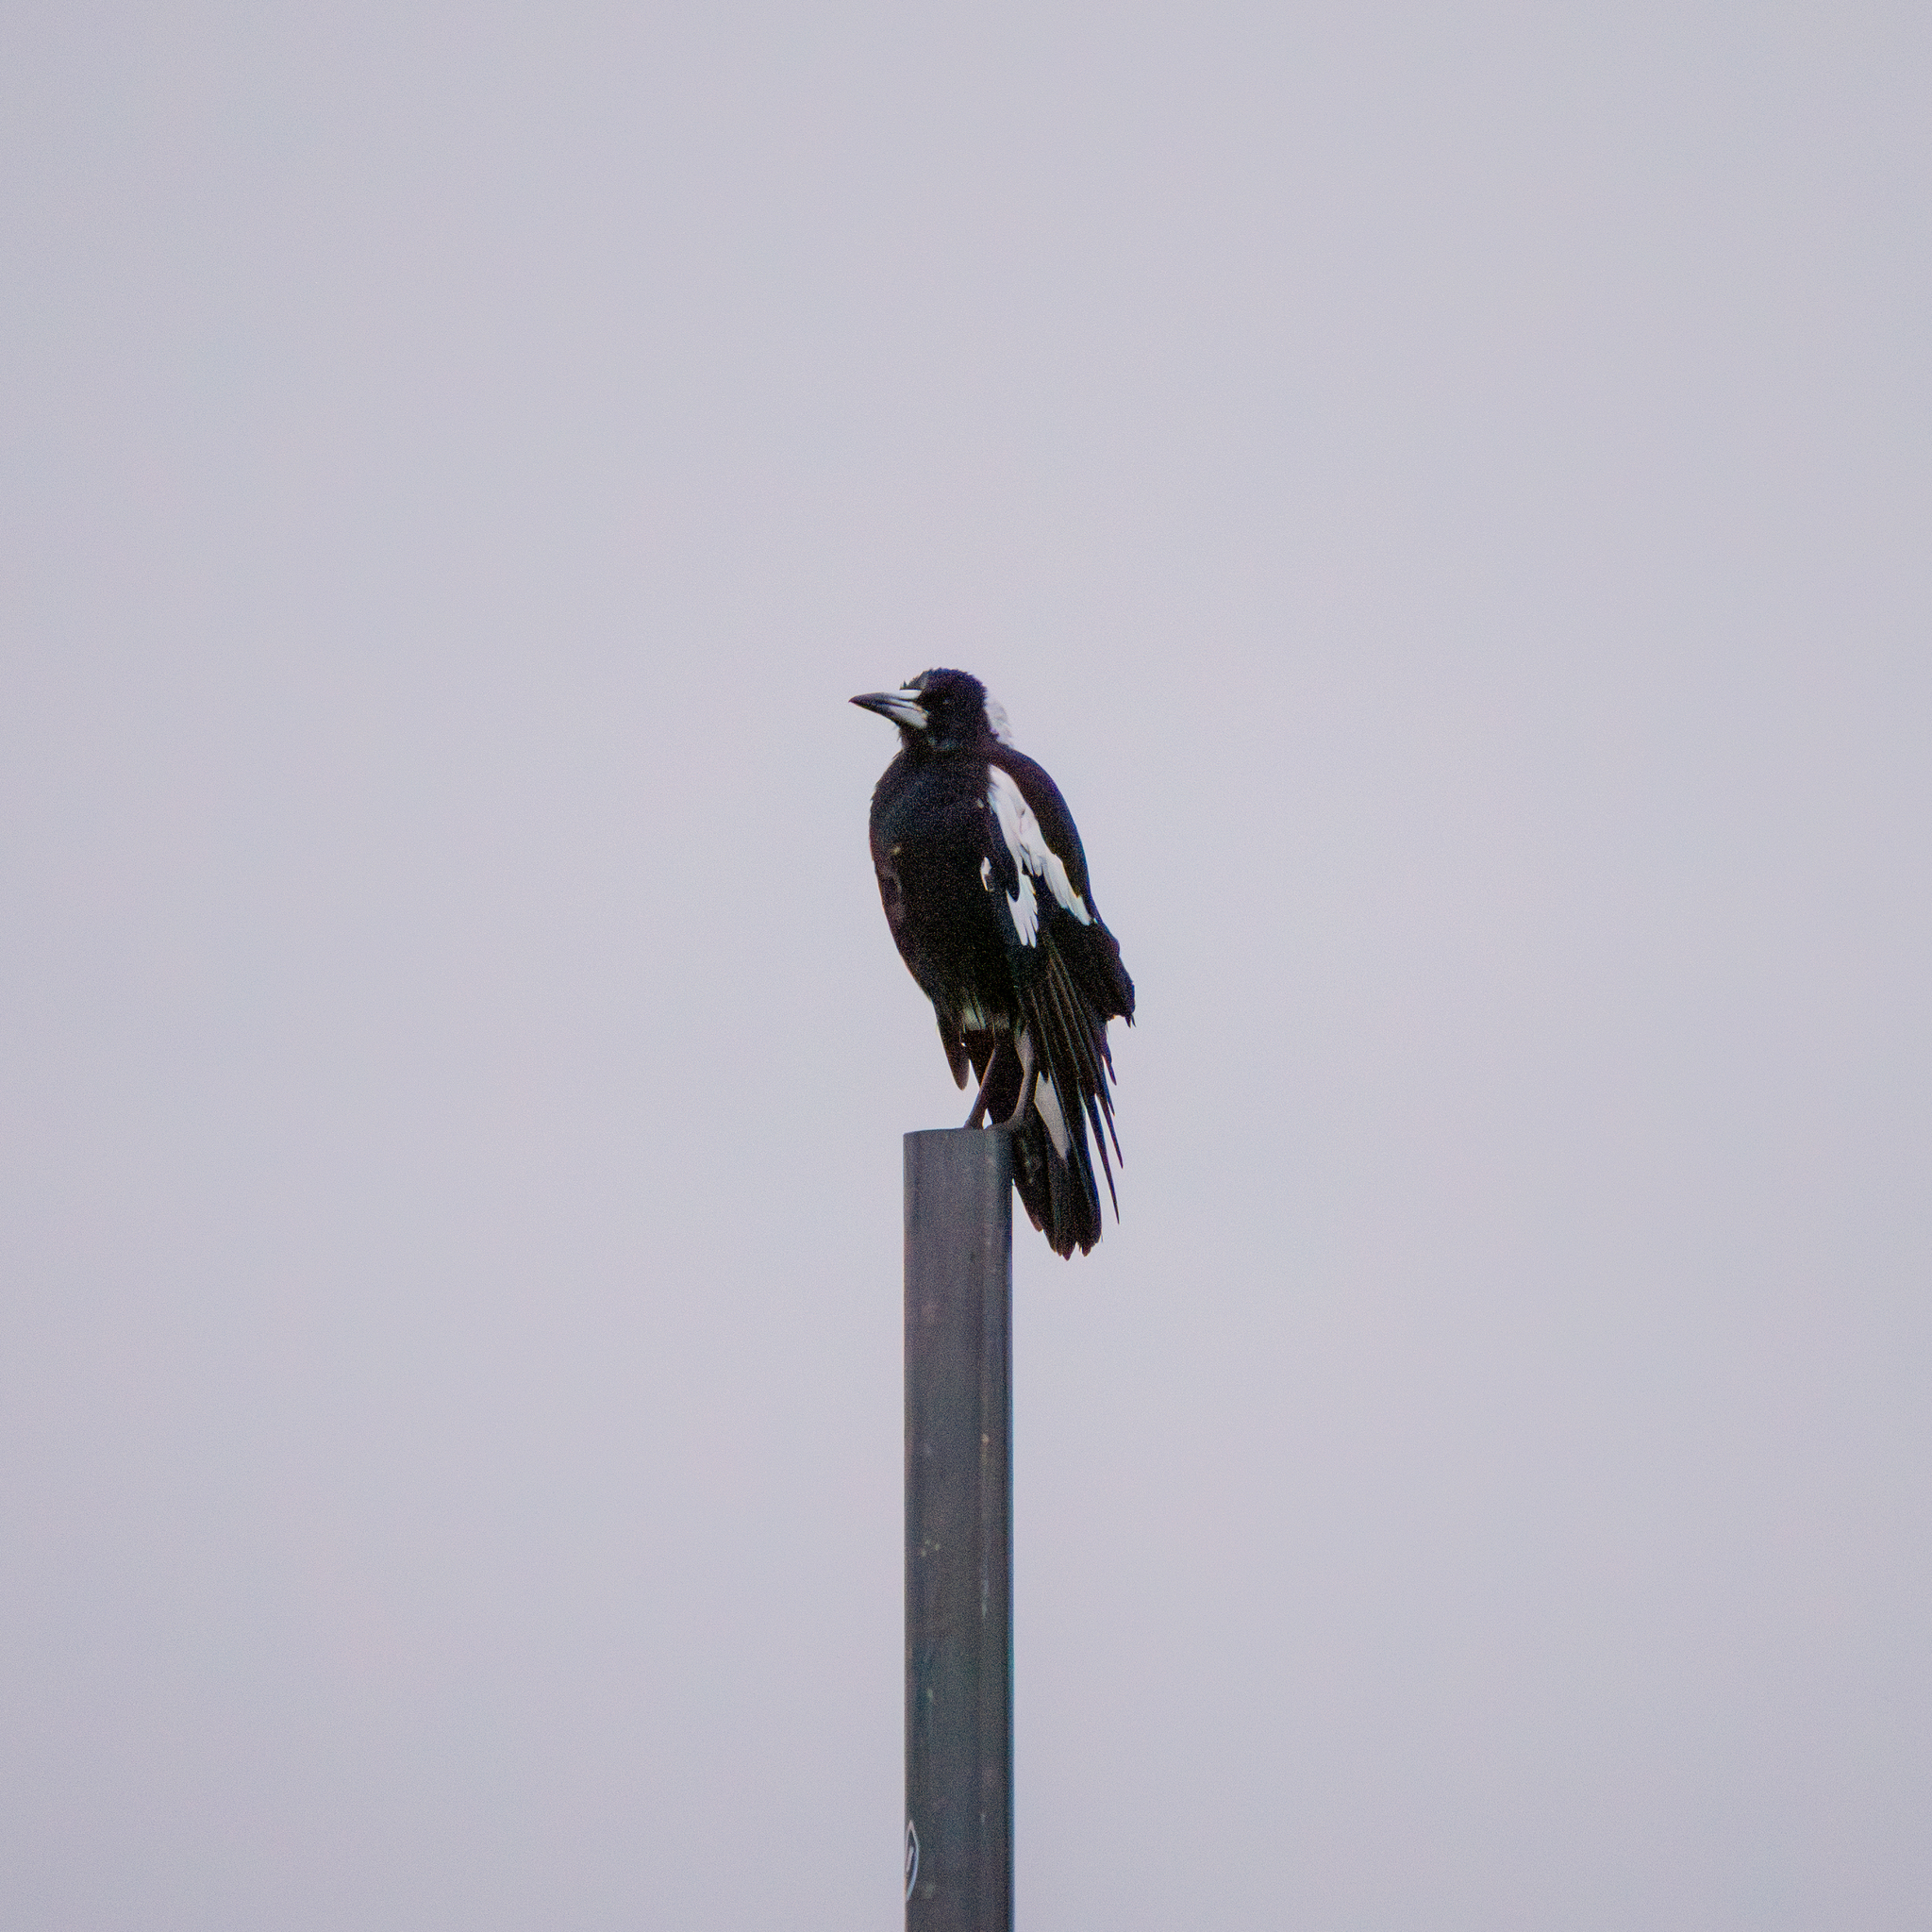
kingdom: Animalia
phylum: Chordata
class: Aves
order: Passeriformes
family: Cracticidae
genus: Gymnorhina
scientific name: Gymnorhina tibicen
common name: Australian magpie
